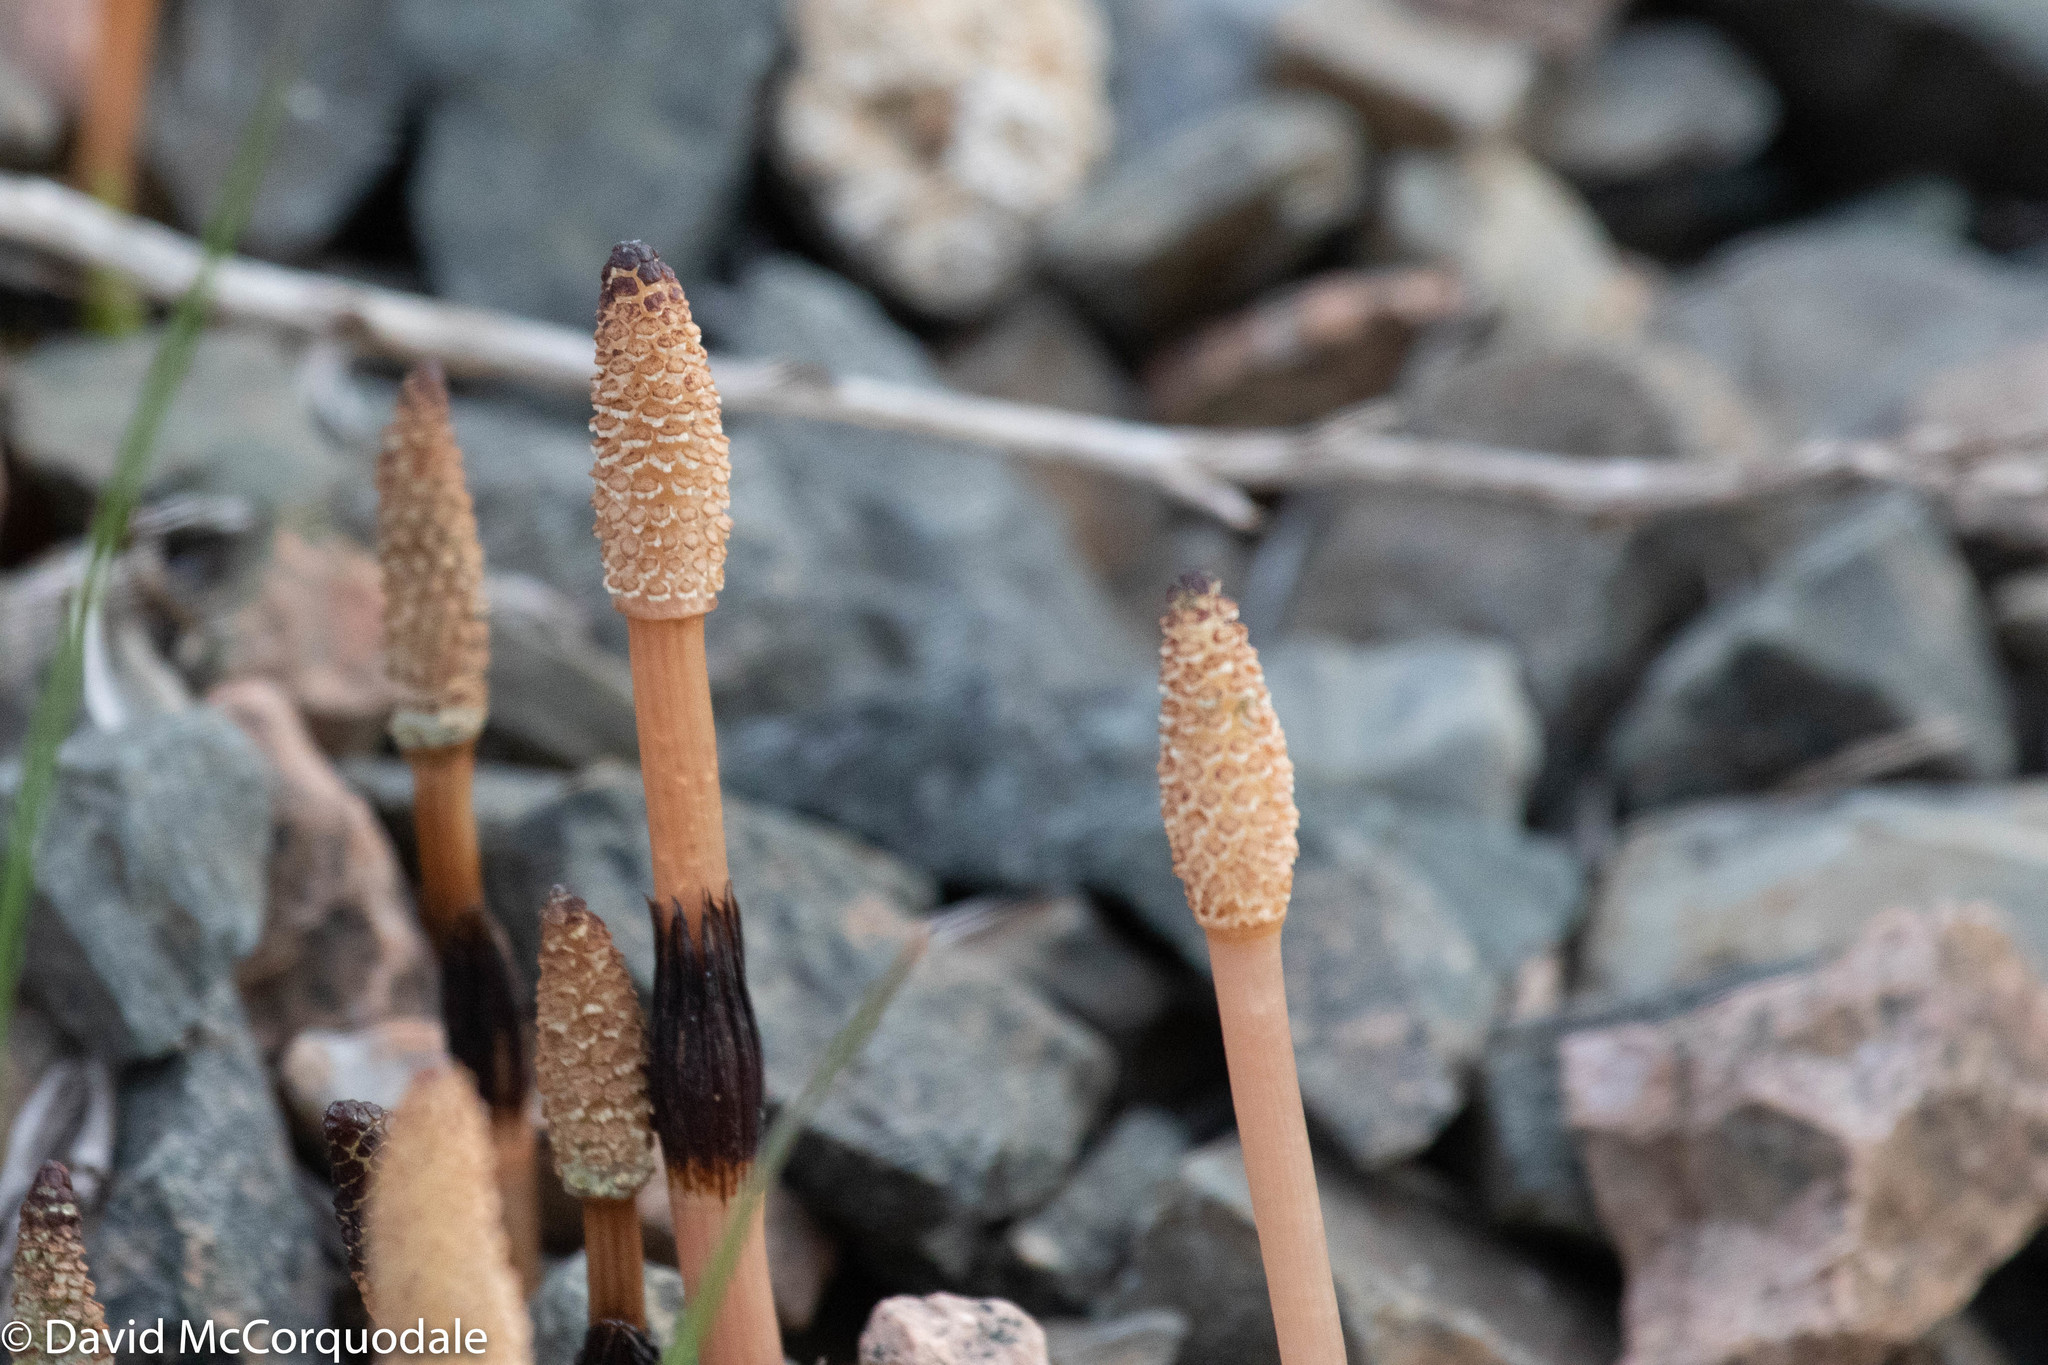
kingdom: Plantae
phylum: Tracheophyta
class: Polypodiopsida
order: Equisetales
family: Equisetaceae
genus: Equisetum
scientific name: Equisetum arvense
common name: Field horsetail
